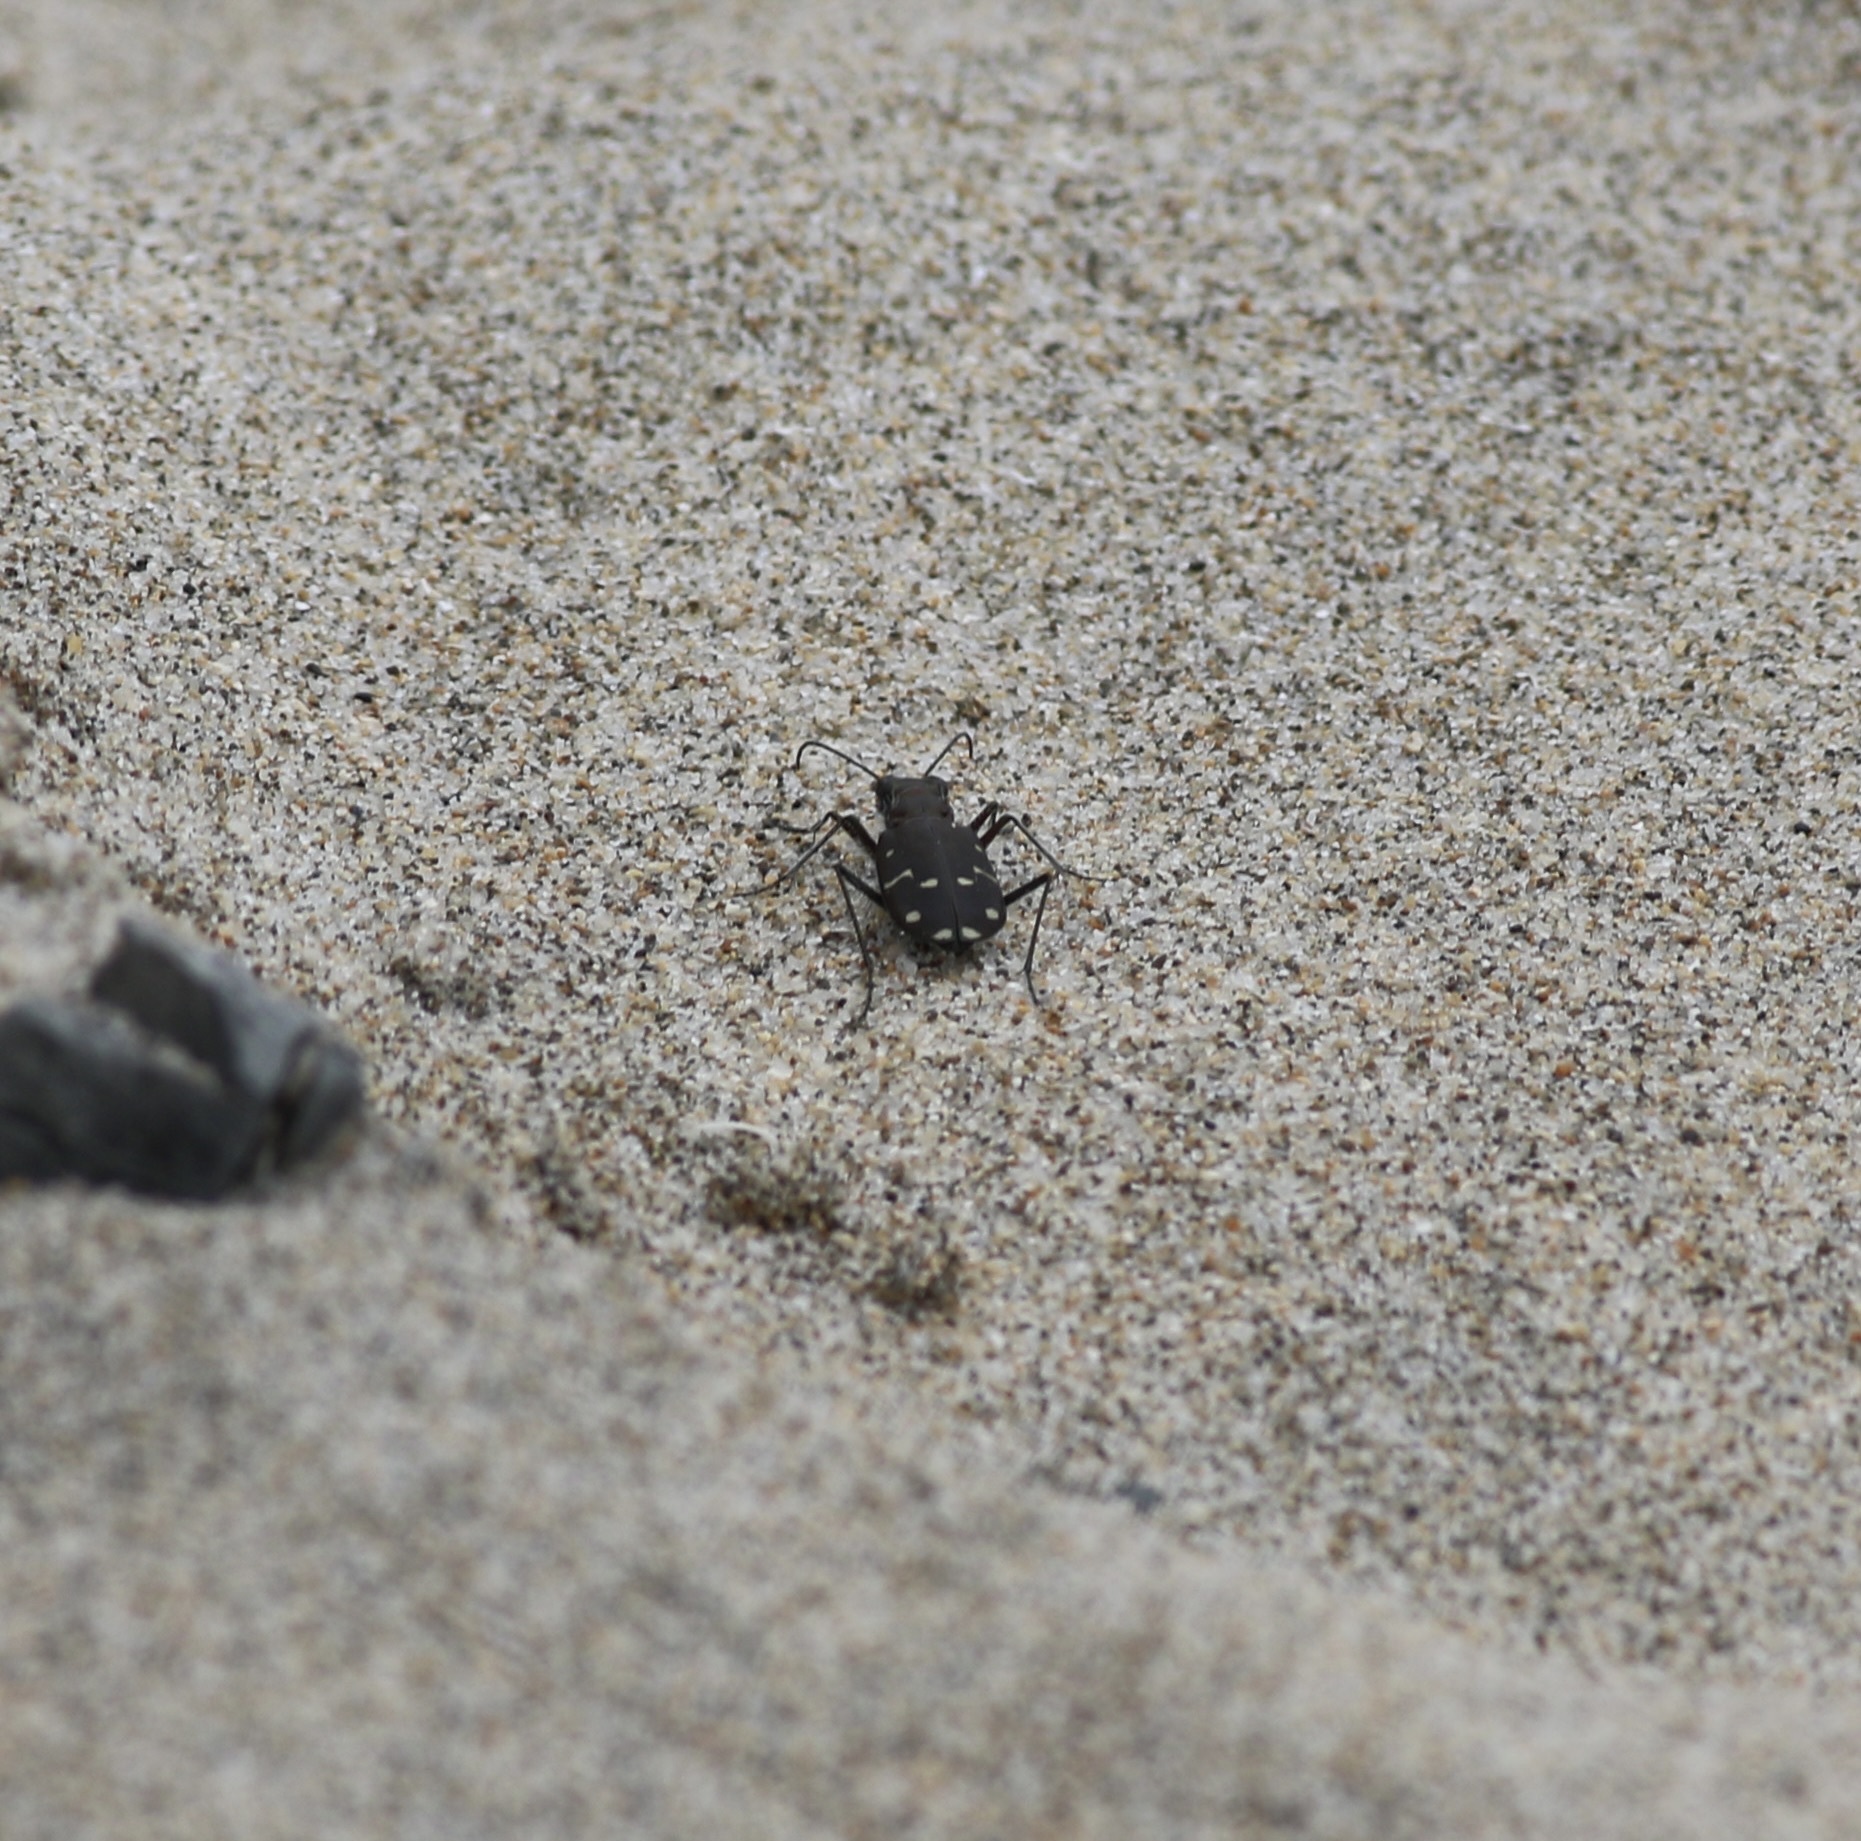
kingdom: Animalia
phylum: Arthropoda
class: Insecta
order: Coleoptera
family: Carabidae
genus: Cicindela
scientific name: Cicindela oregona
